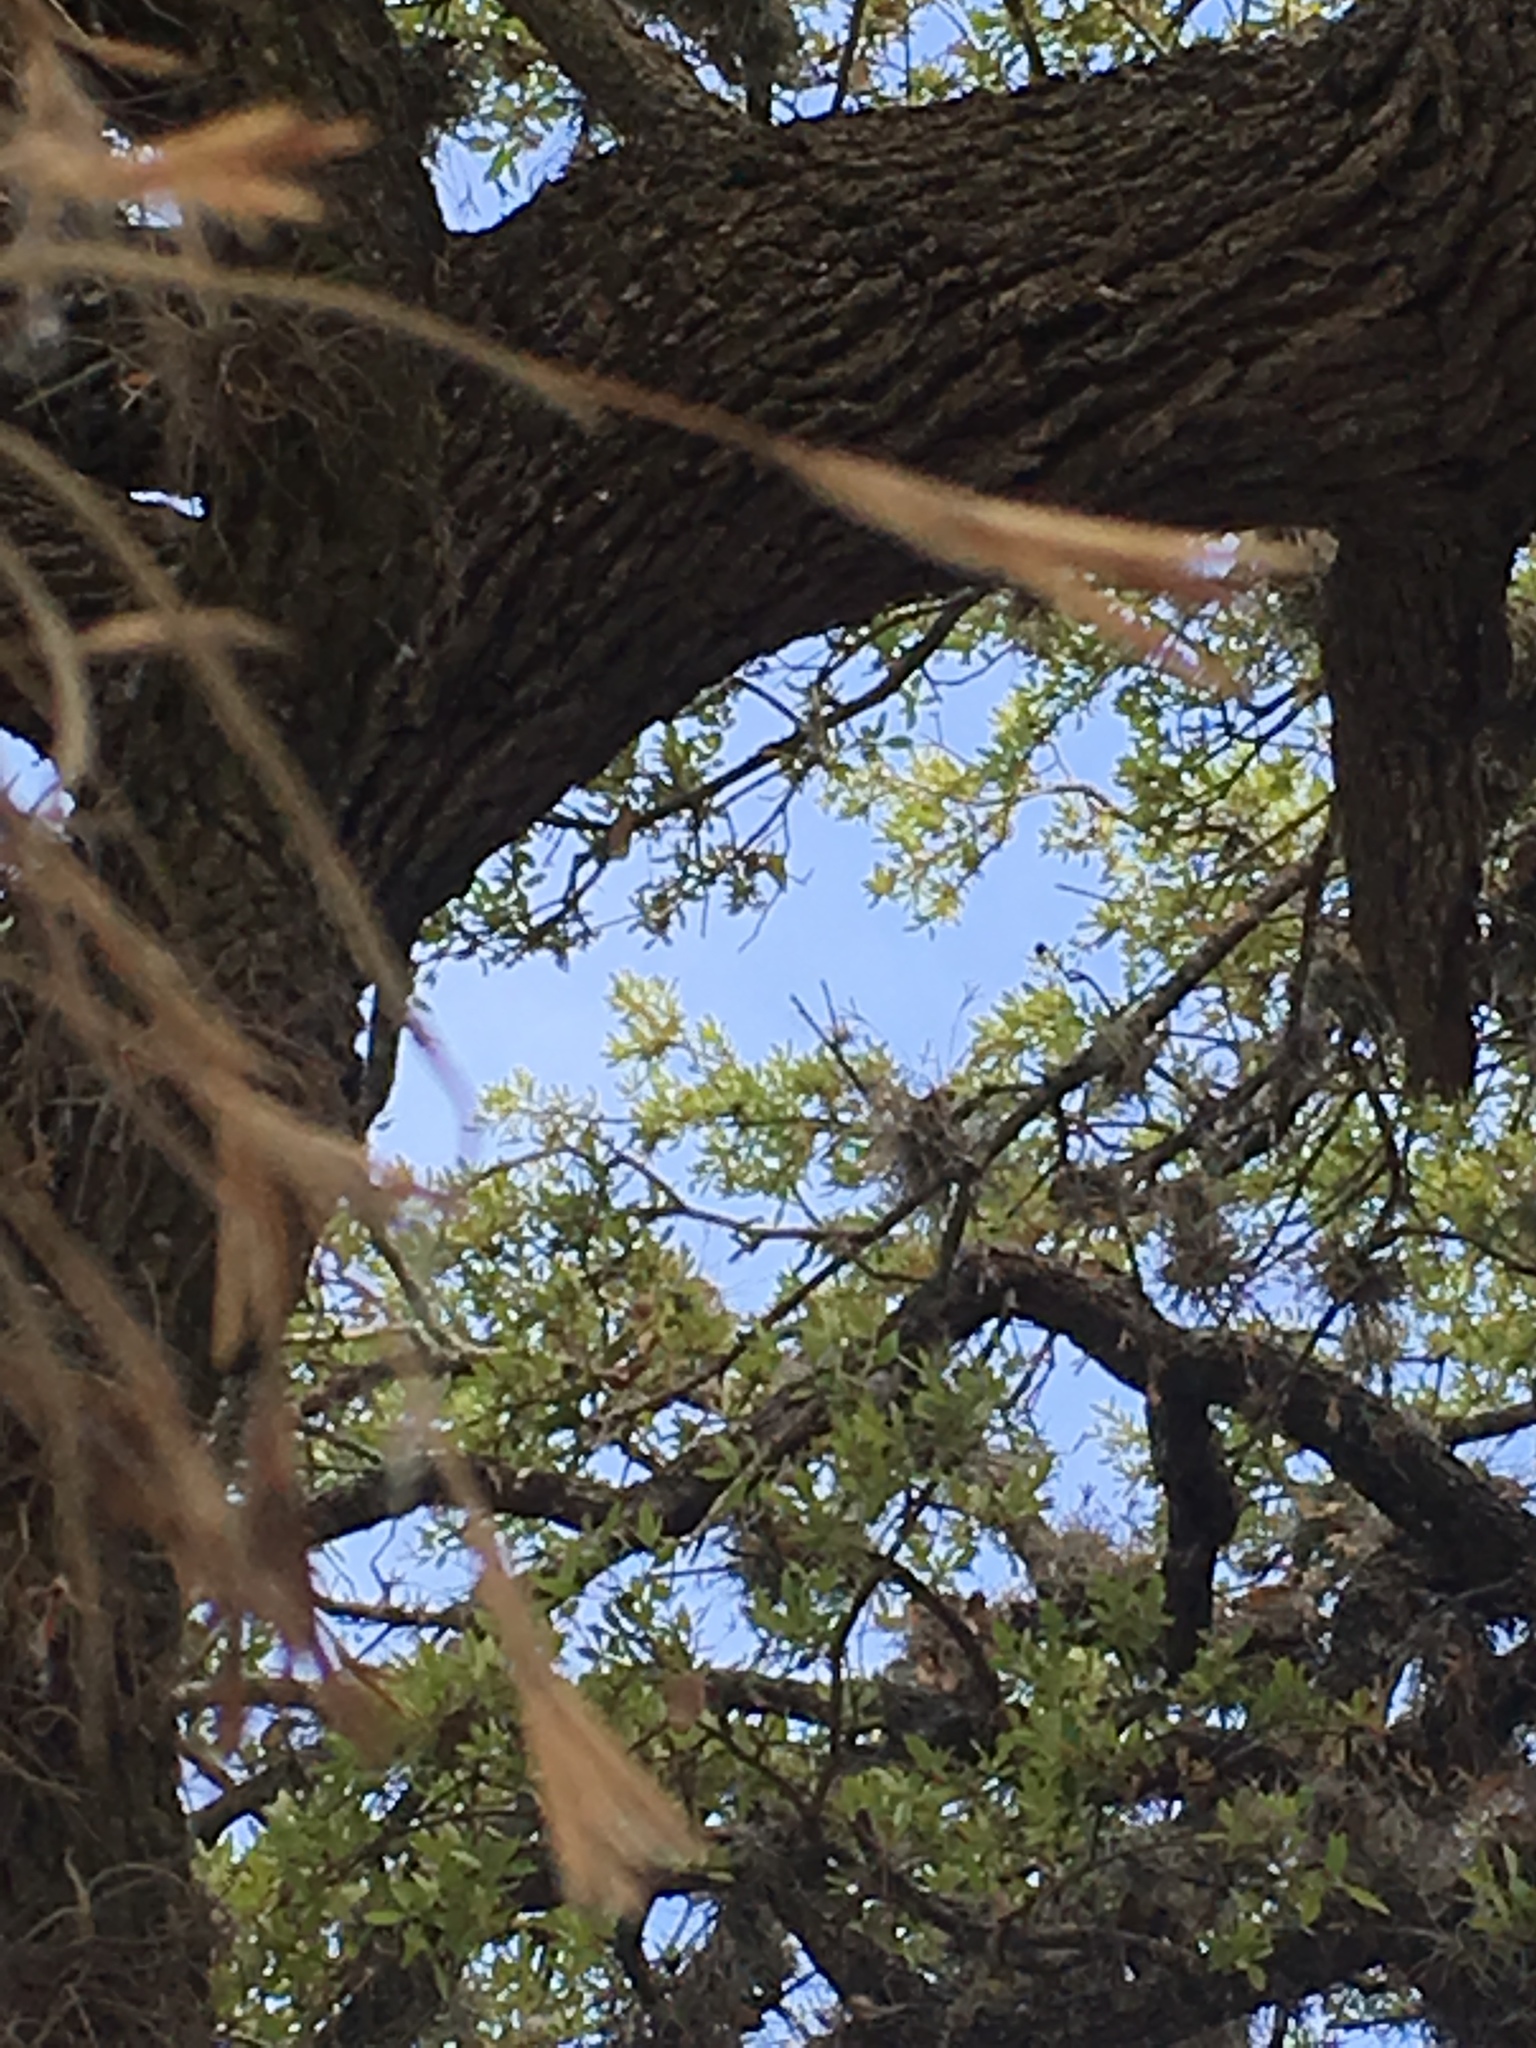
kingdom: Plantae
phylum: Tracheophyta
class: Liliopsida
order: Poales
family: Bromeliaceae
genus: Tillandsia
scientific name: Tillandsia recurvata
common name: Small ballmoss
